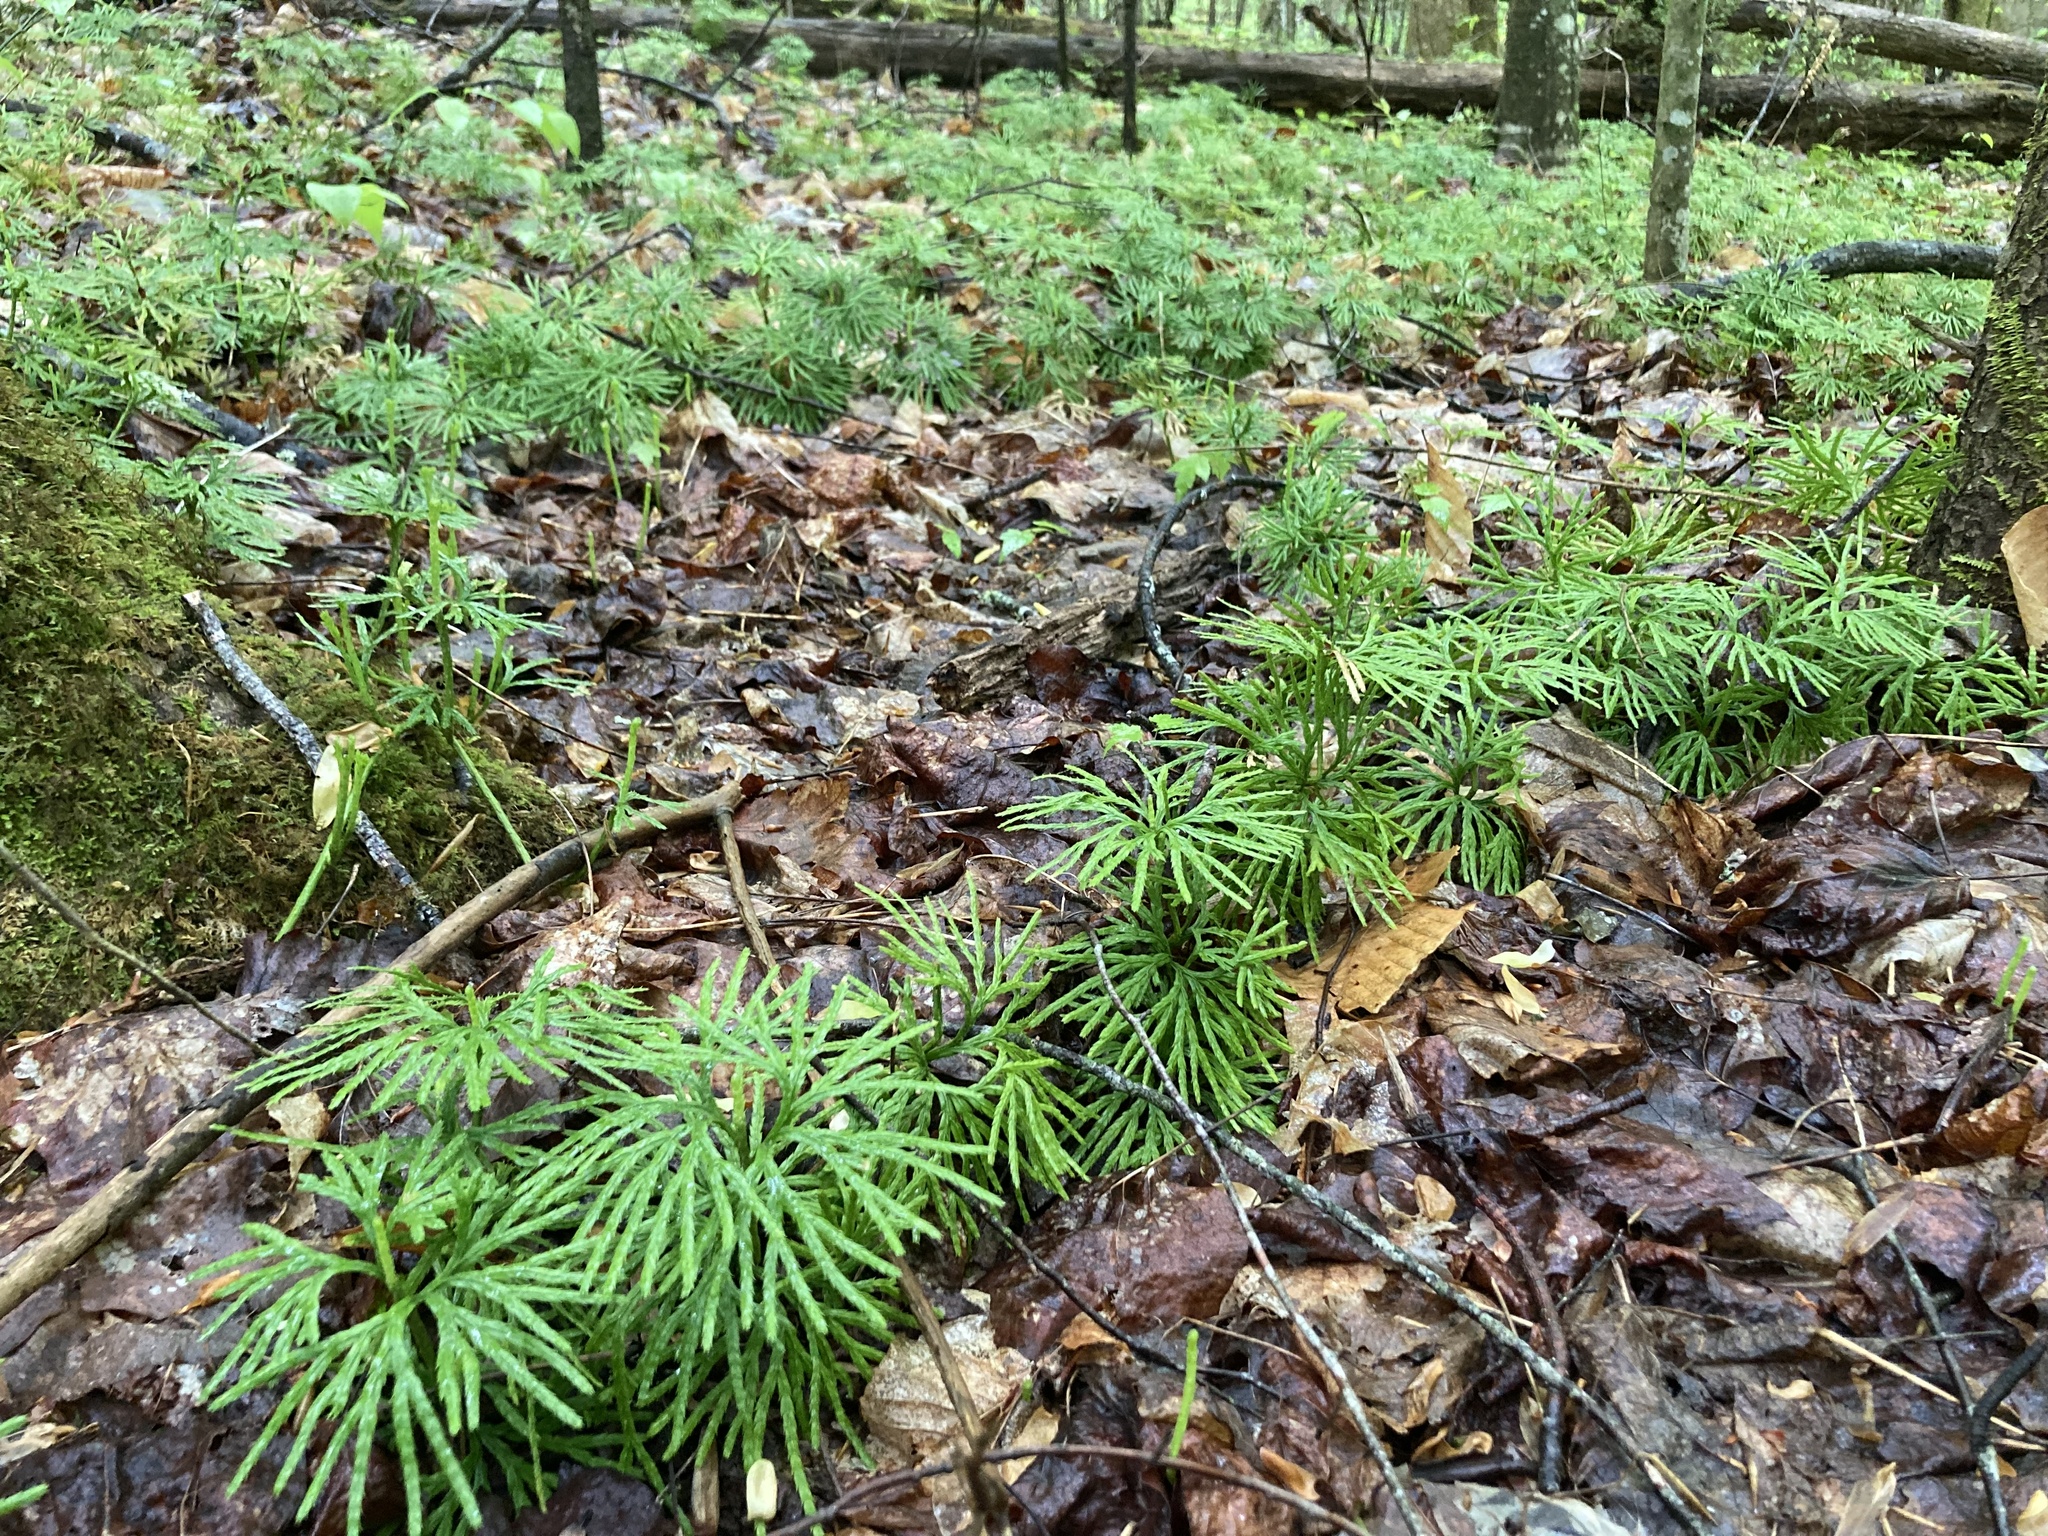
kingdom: Plantae
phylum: Tracheophyta
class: Lycopodiopsida
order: Lycopodiales
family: Lycopodiaceae
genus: Diphasiastrum
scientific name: Diphasiastrum digitatum
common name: Southern running-pine
